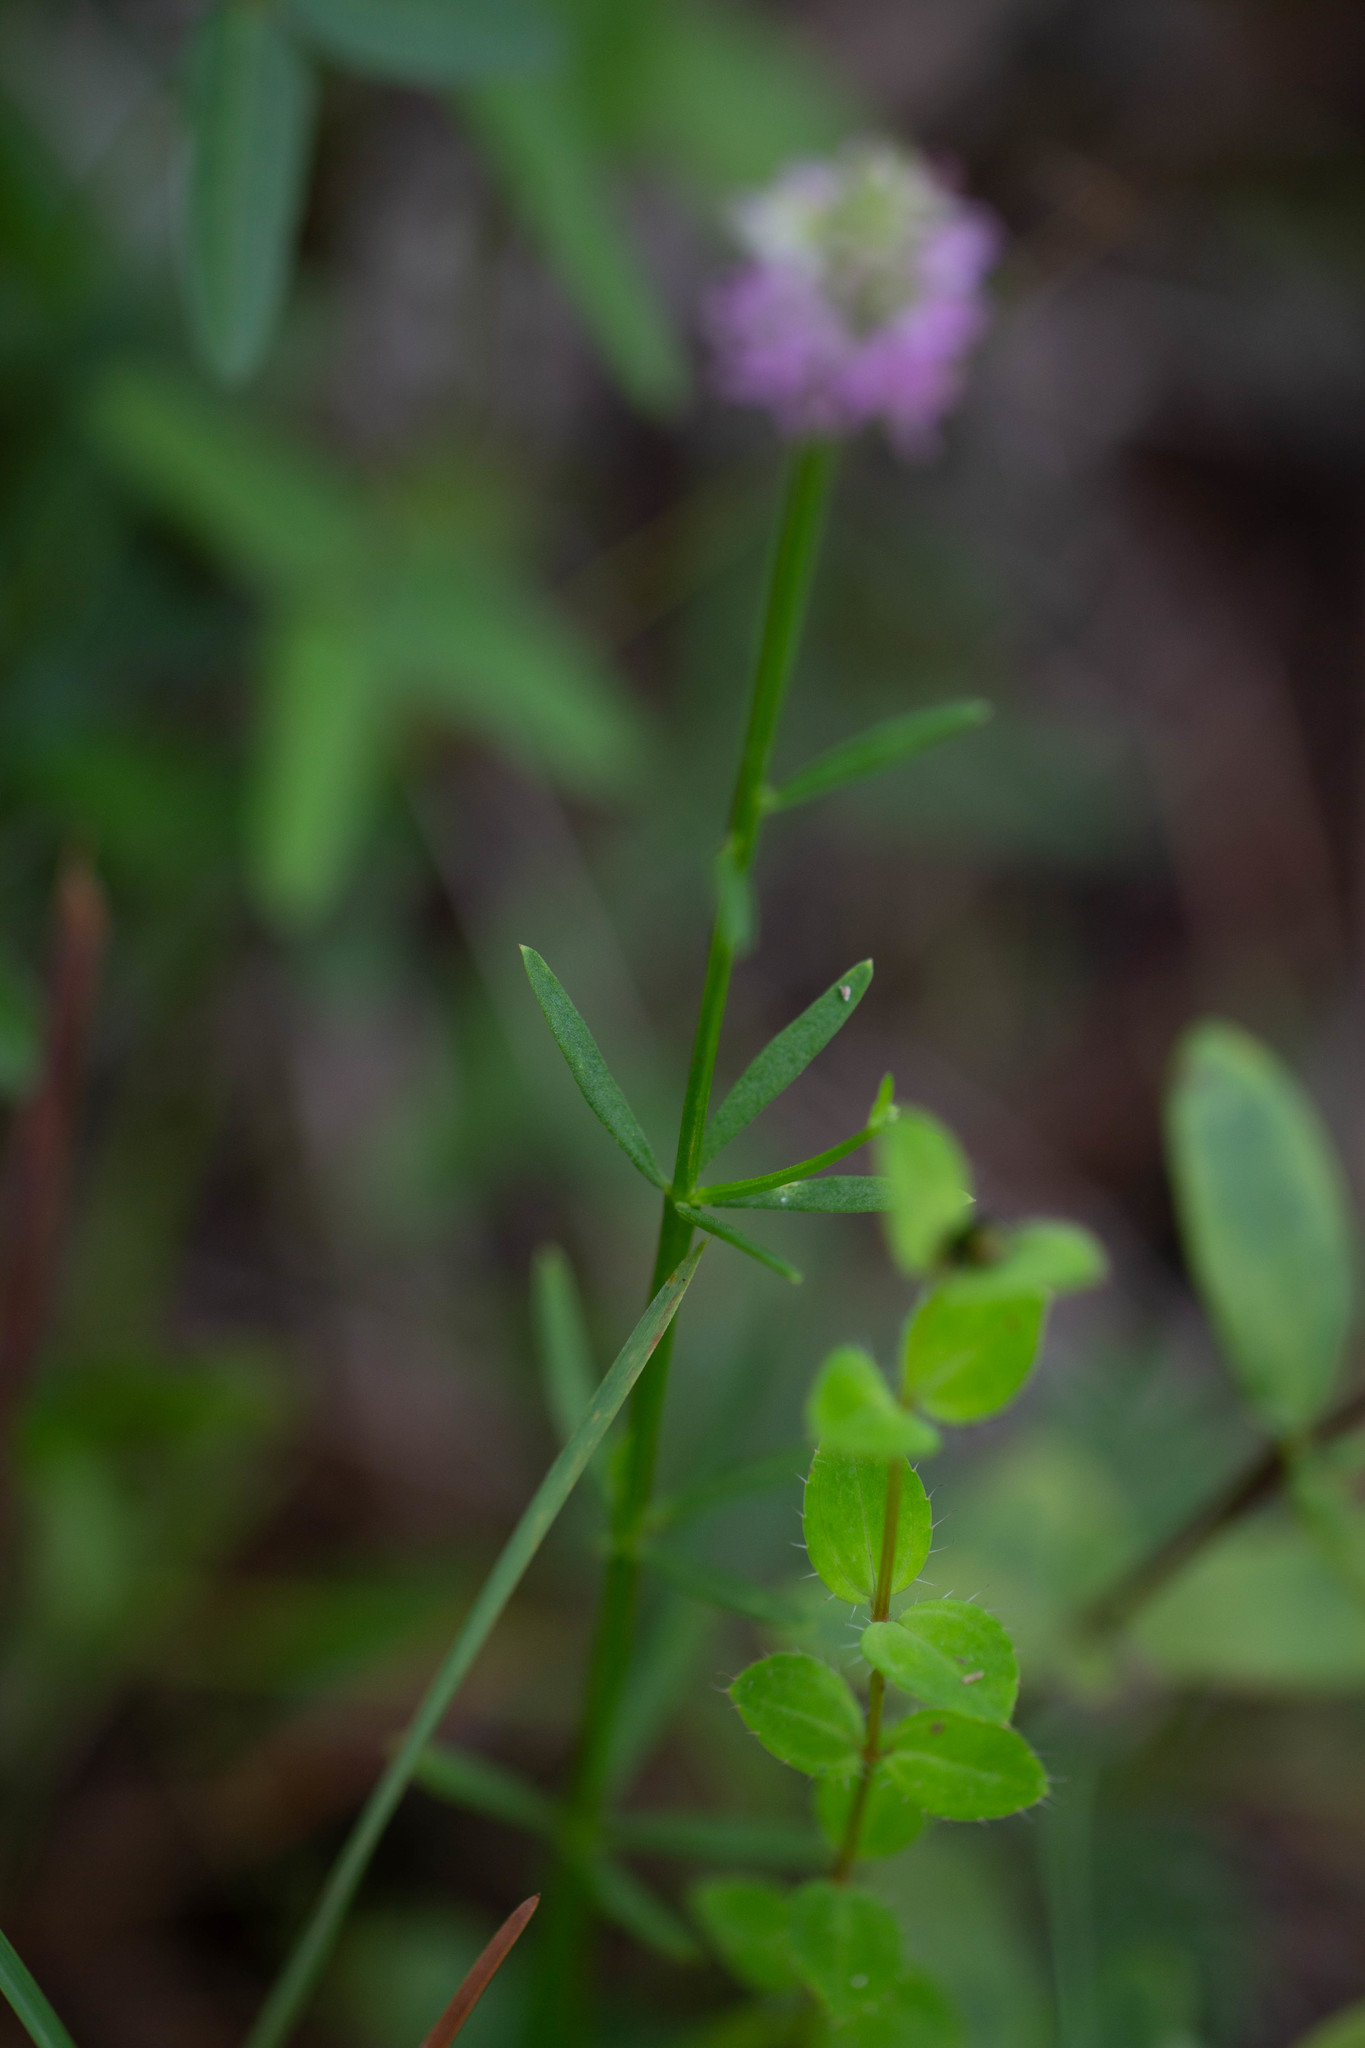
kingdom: Plantae
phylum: Tracheophyta
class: Magnoliopsida
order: Fabales
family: Polygalaceae
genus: Polygala
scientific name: Polygala brevifolia
